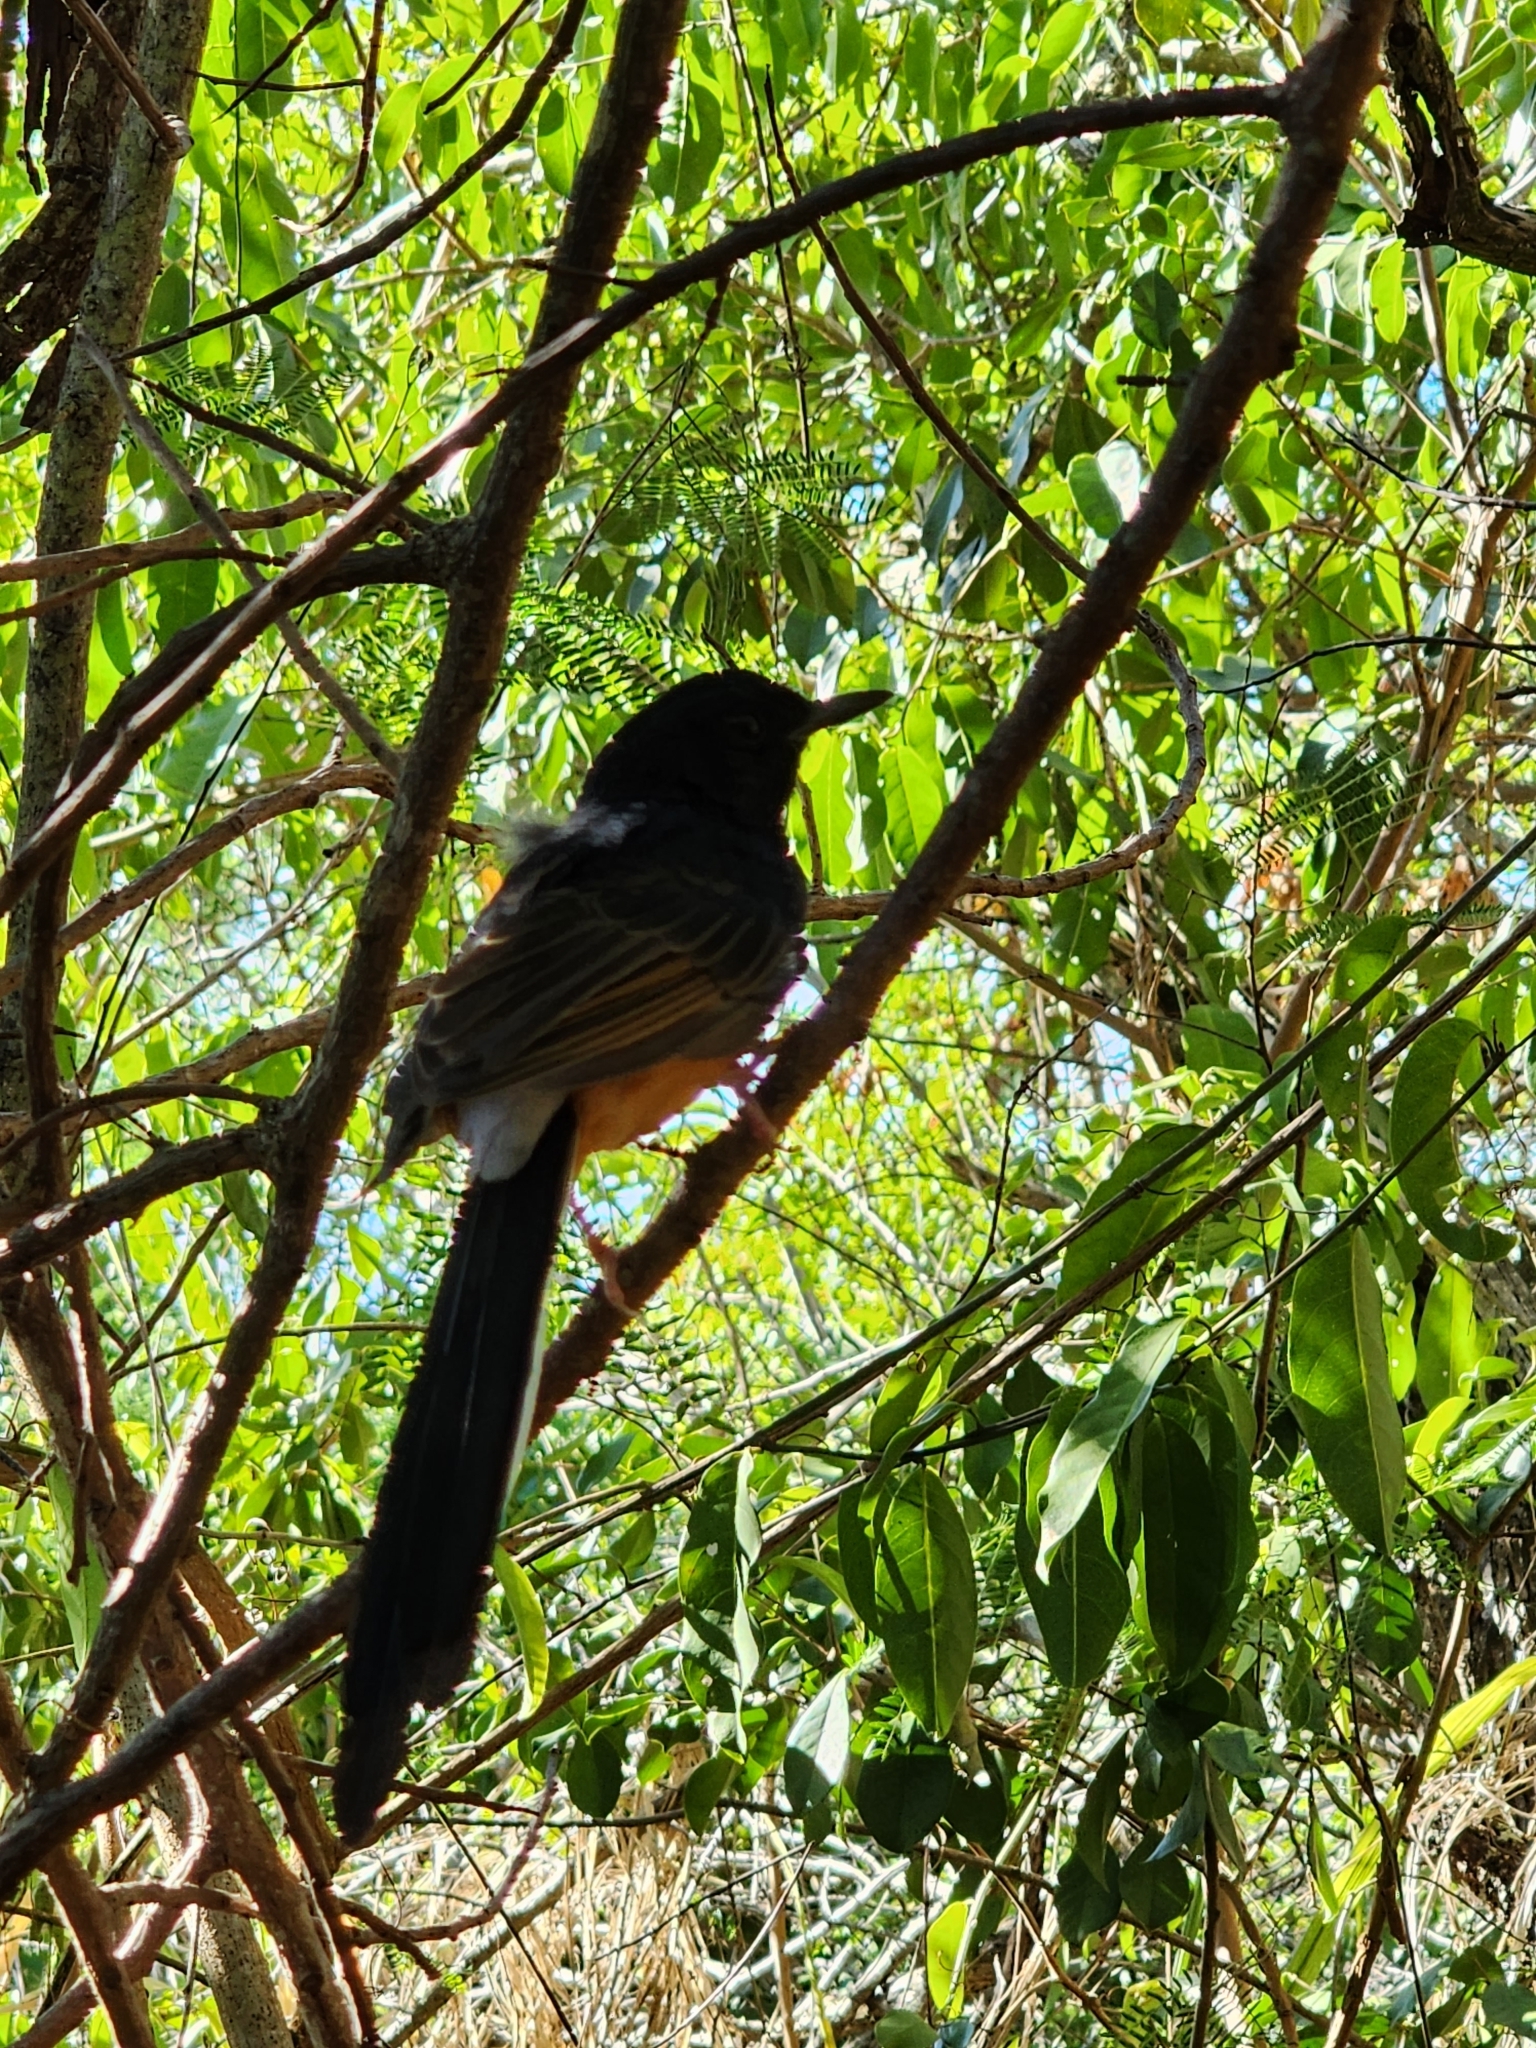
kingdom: Animalia
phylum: Chordata
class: Aves
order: Passeriformes
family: Muscicapidae
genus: Copsychus
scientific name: Copsychus malabaricus
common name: White-rumped shama
